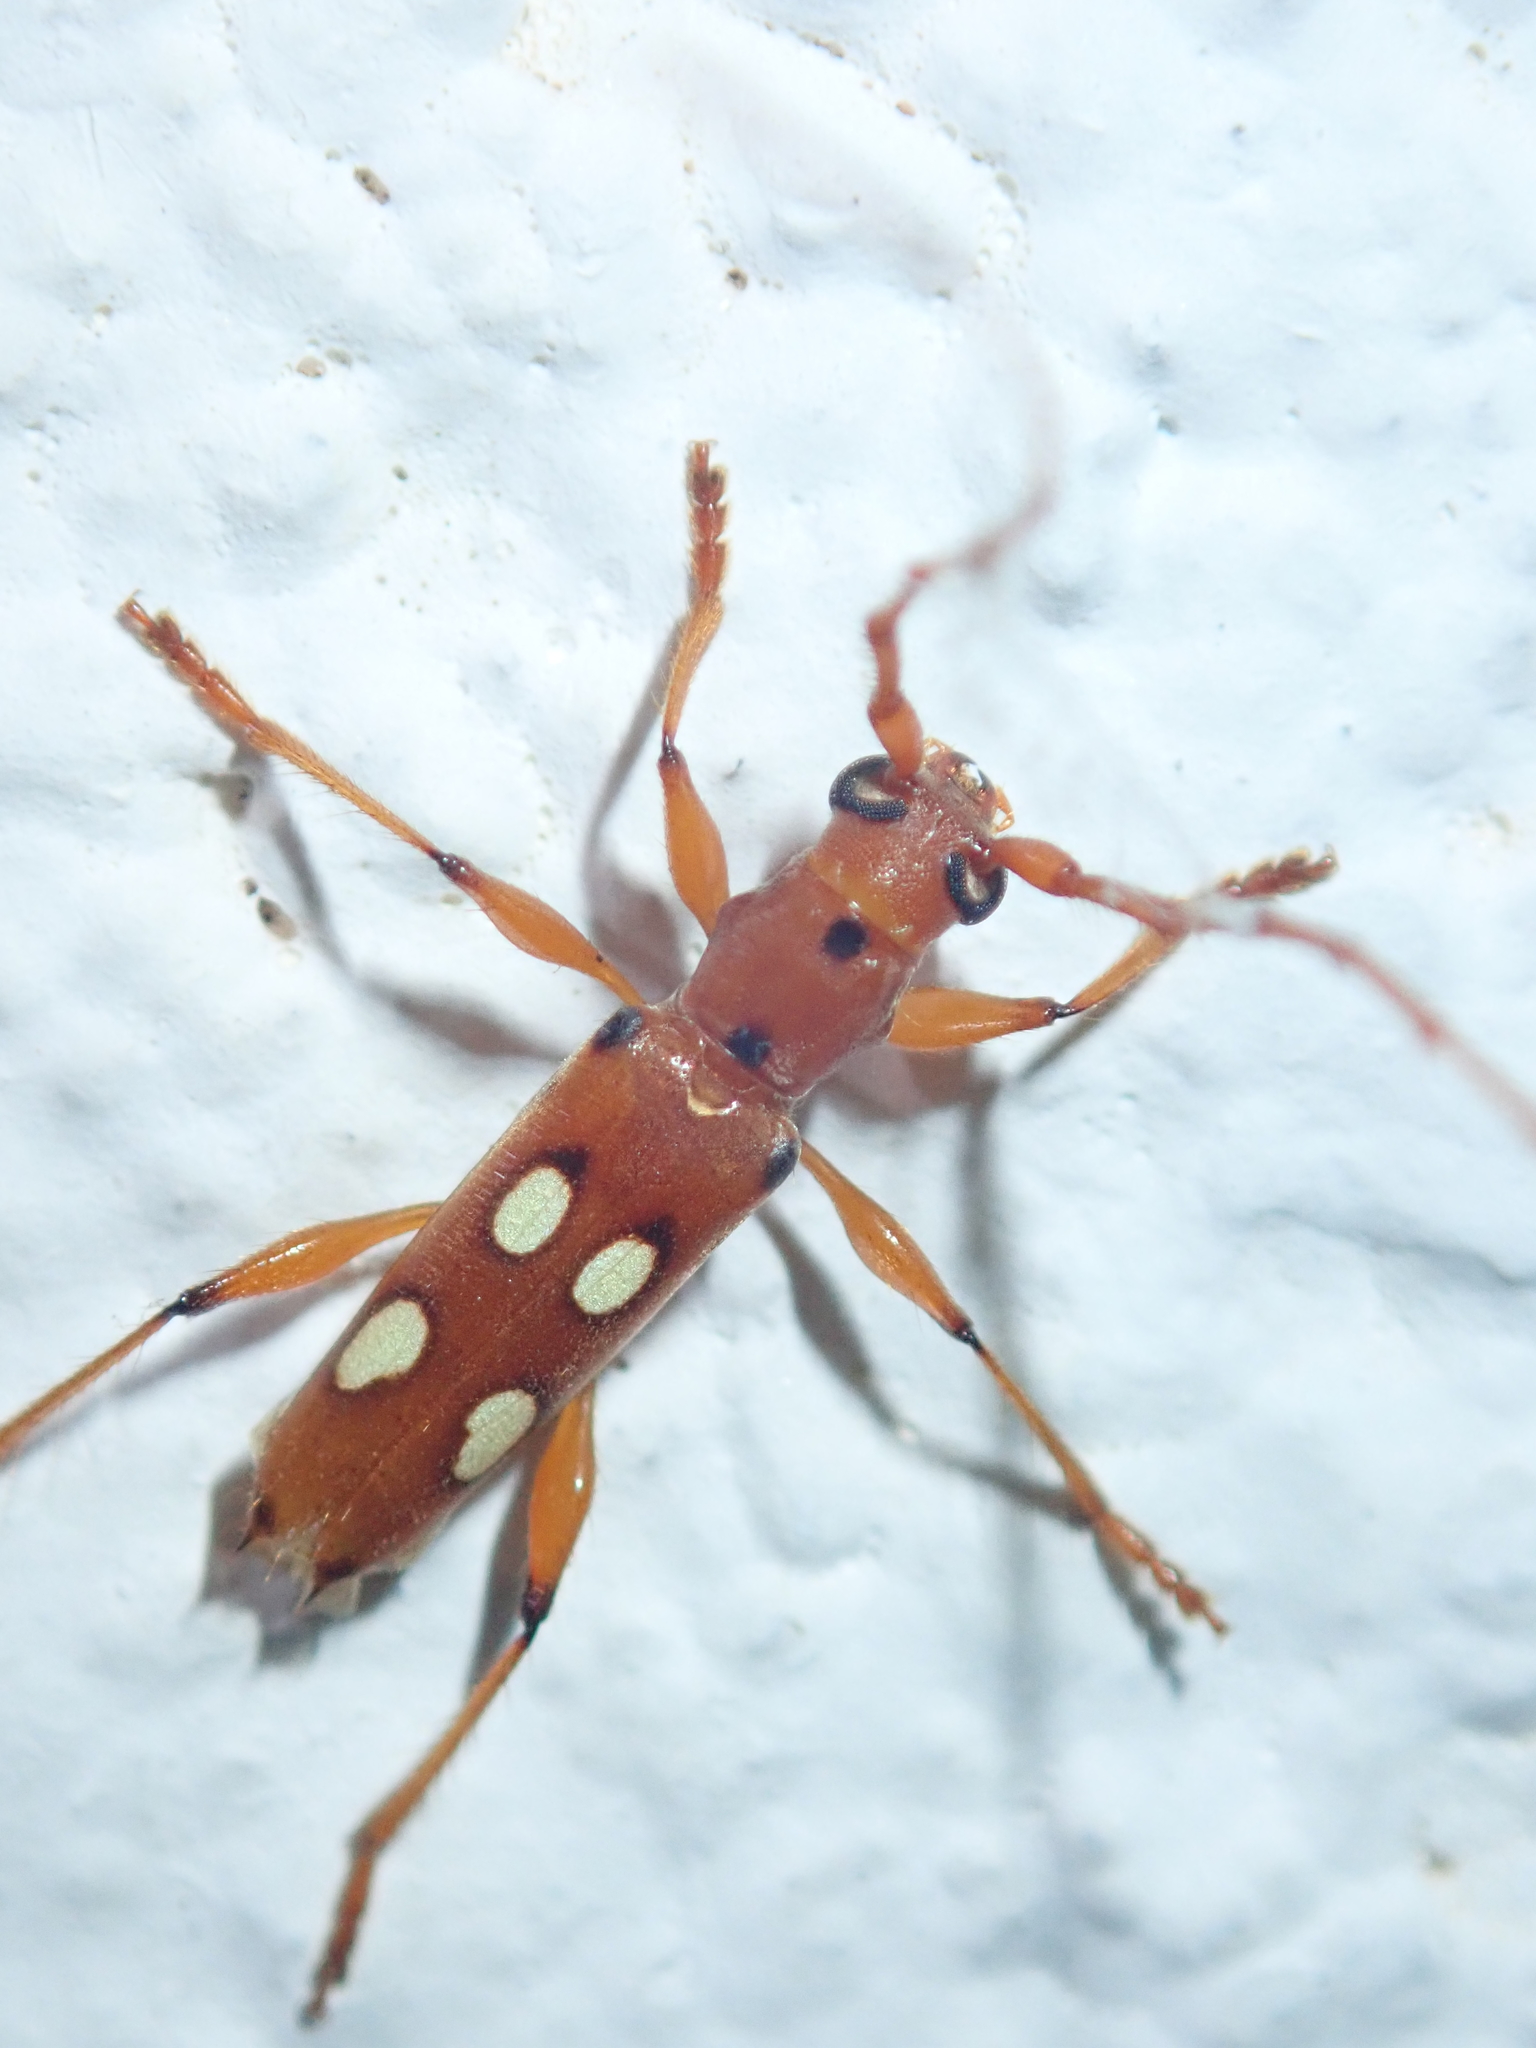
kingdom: Animalia
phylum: Arthropoda
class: Insecta
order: Coleoptera
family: Cerambycidae
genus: Paranyssicus
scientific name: Paranyssicus conspicillatus
